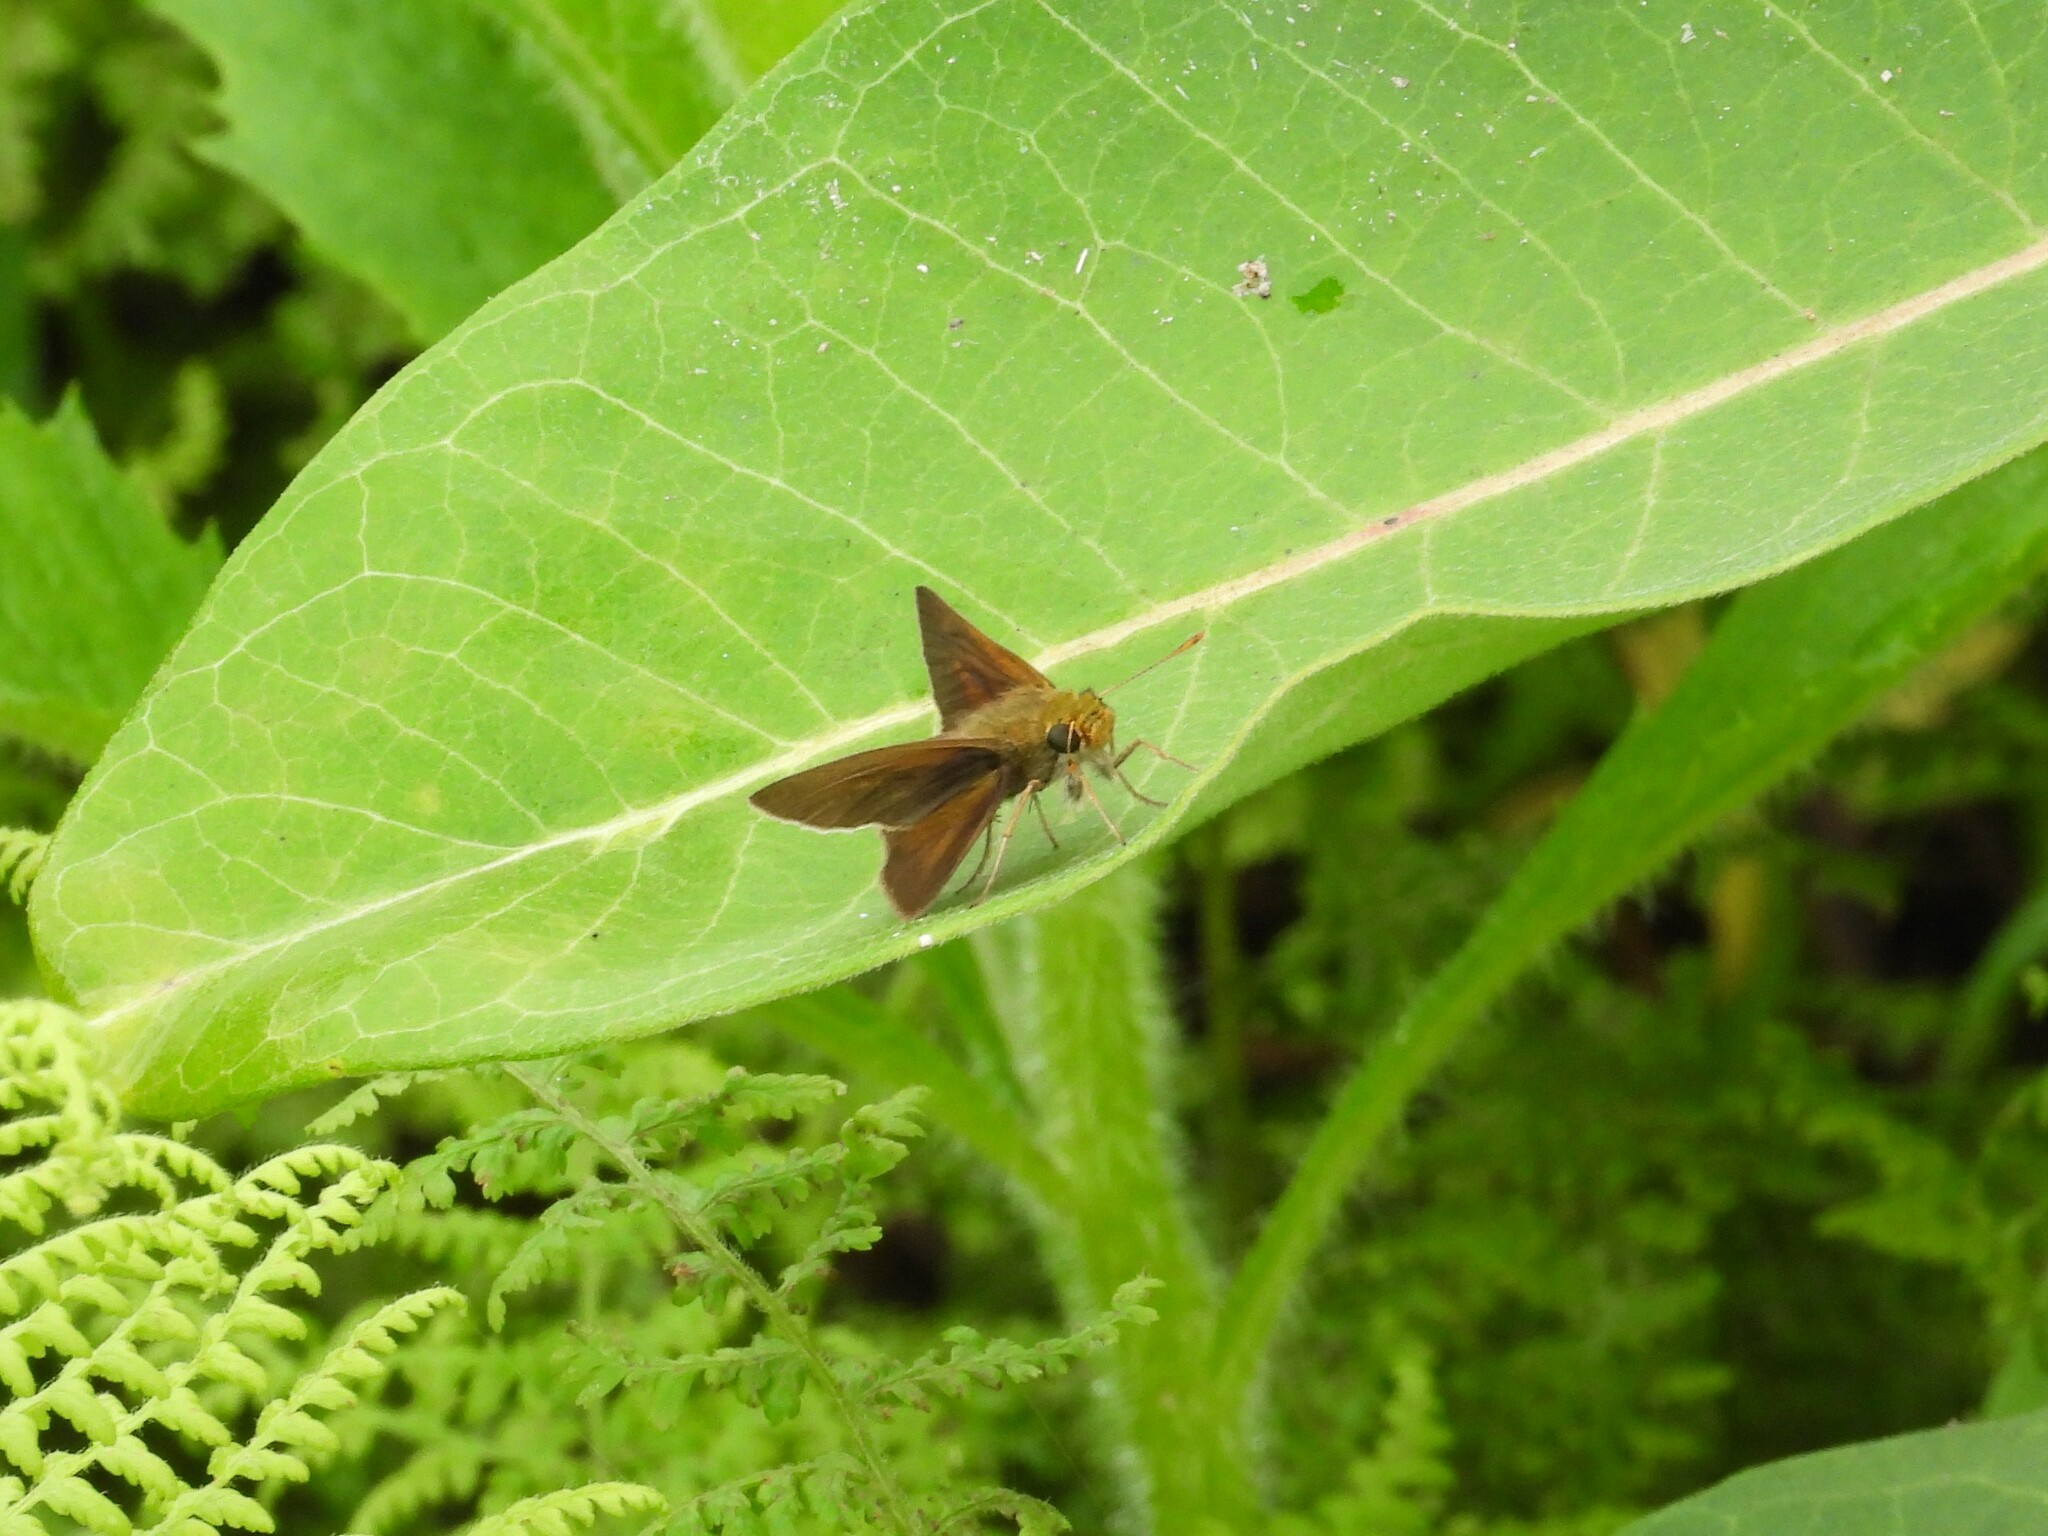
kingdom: Animalia
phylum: Arthropoda
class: Insecta
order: Lepidoptera
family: Hesperiidae
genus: Euphyes
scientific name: Euphyes vestris
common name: Dun skipper
